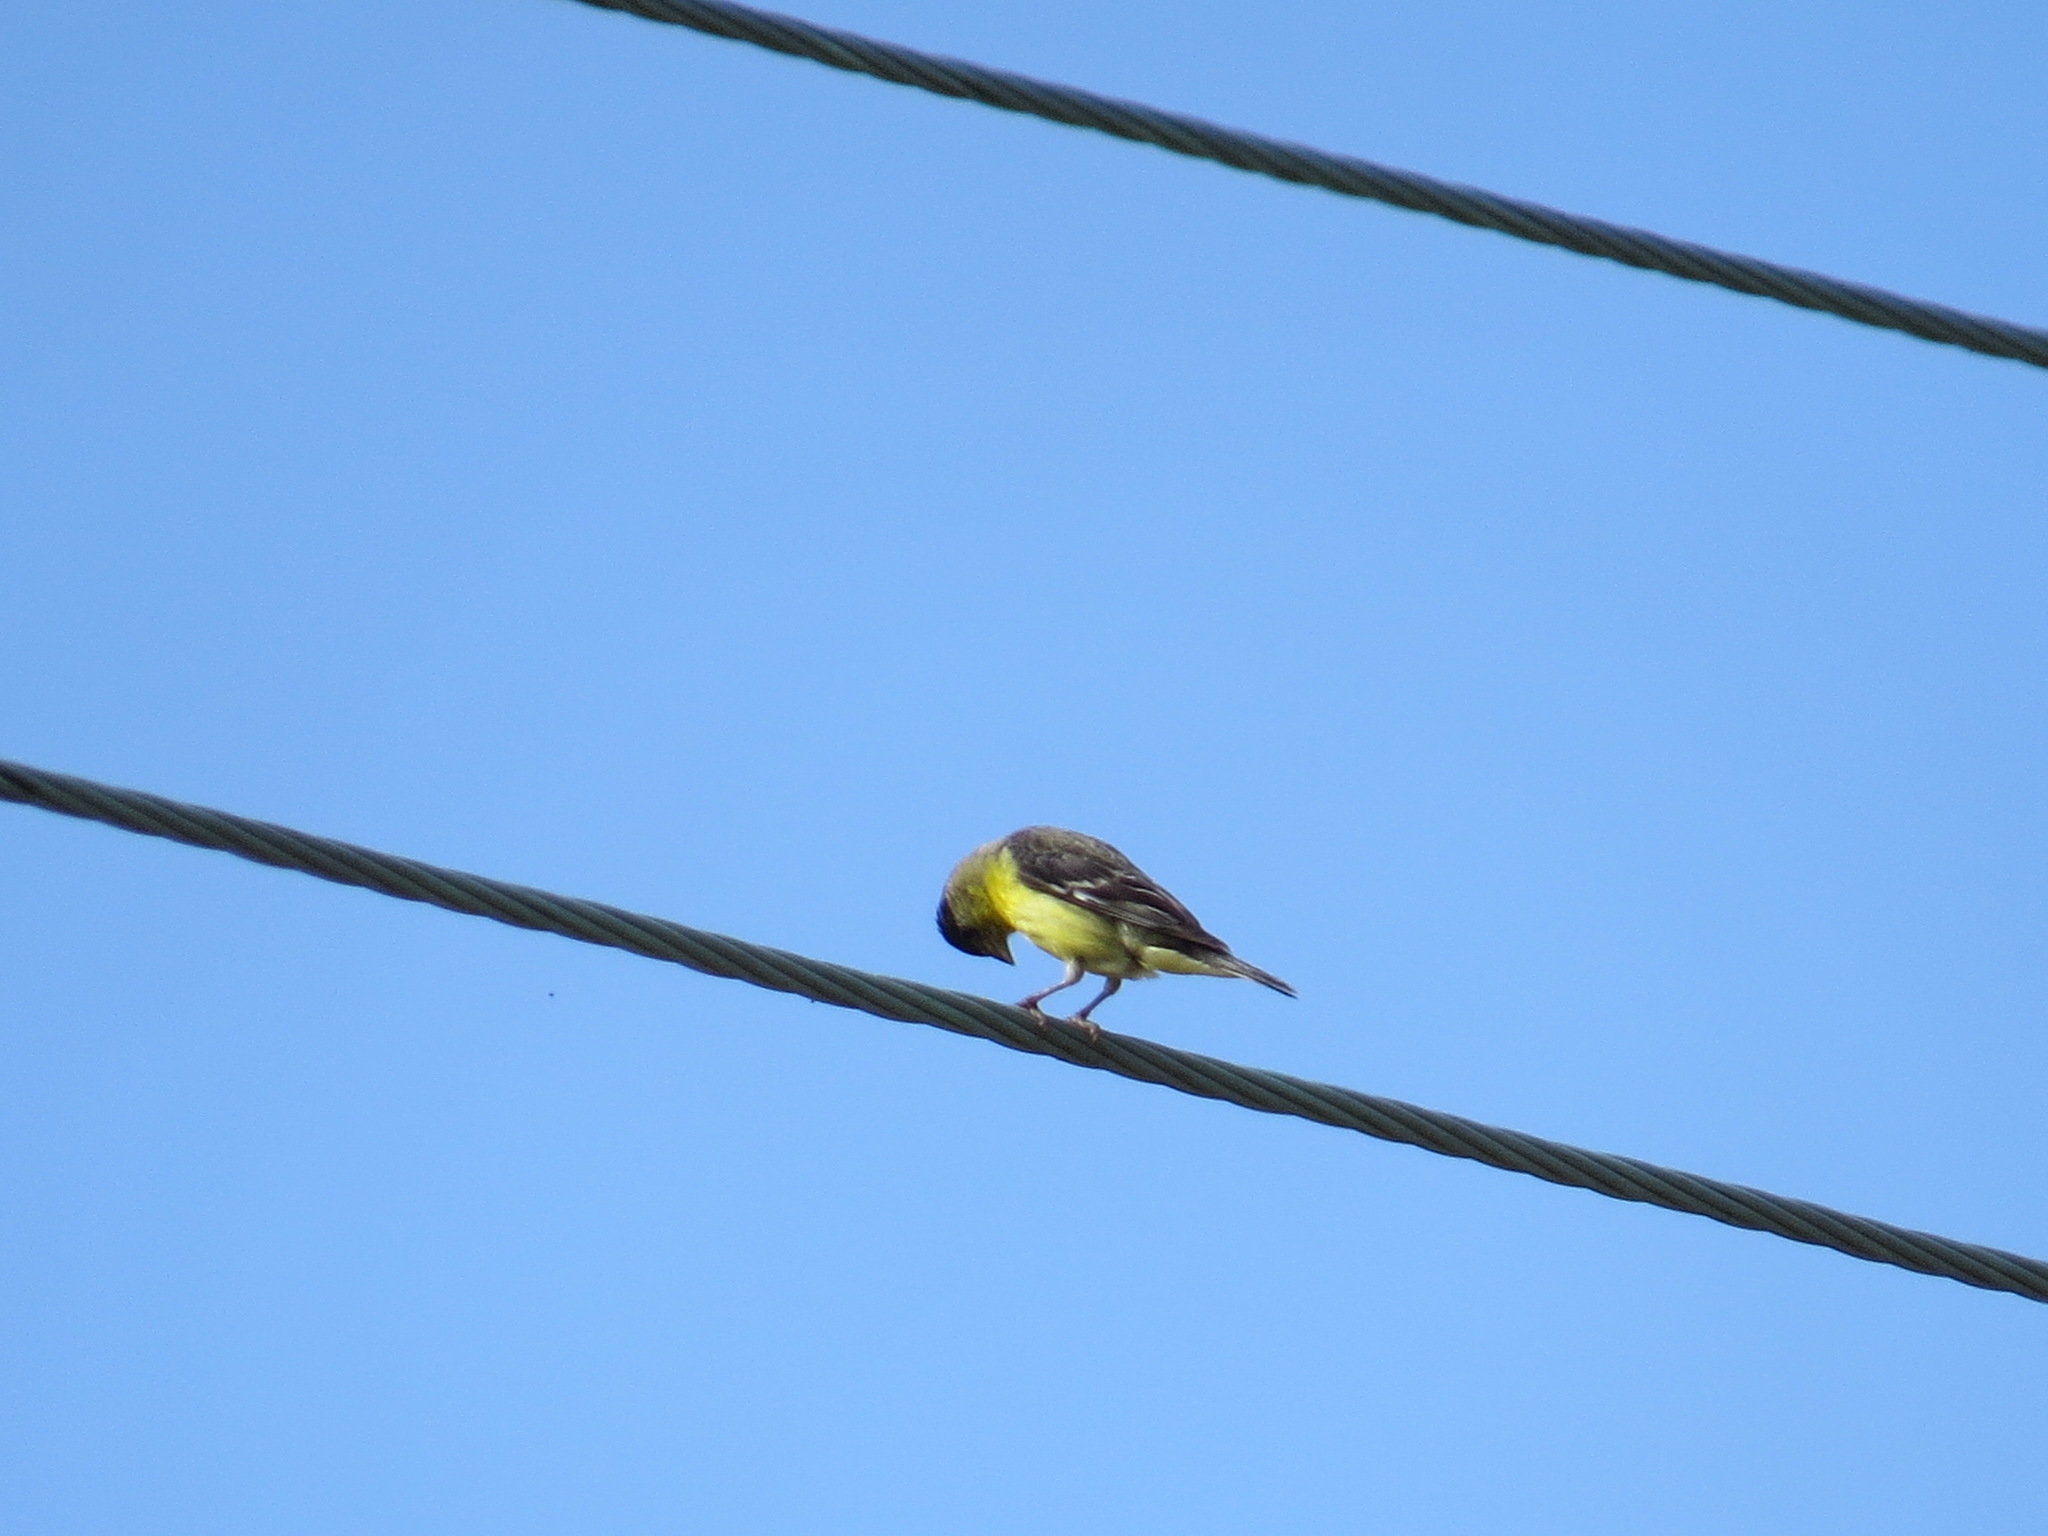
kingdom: Animalia
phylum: Chordata
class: Aves
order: Passeriformes
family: Fringillidae
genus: Spinus
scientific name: Spinus psaltria
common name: Lesser goldfinch
